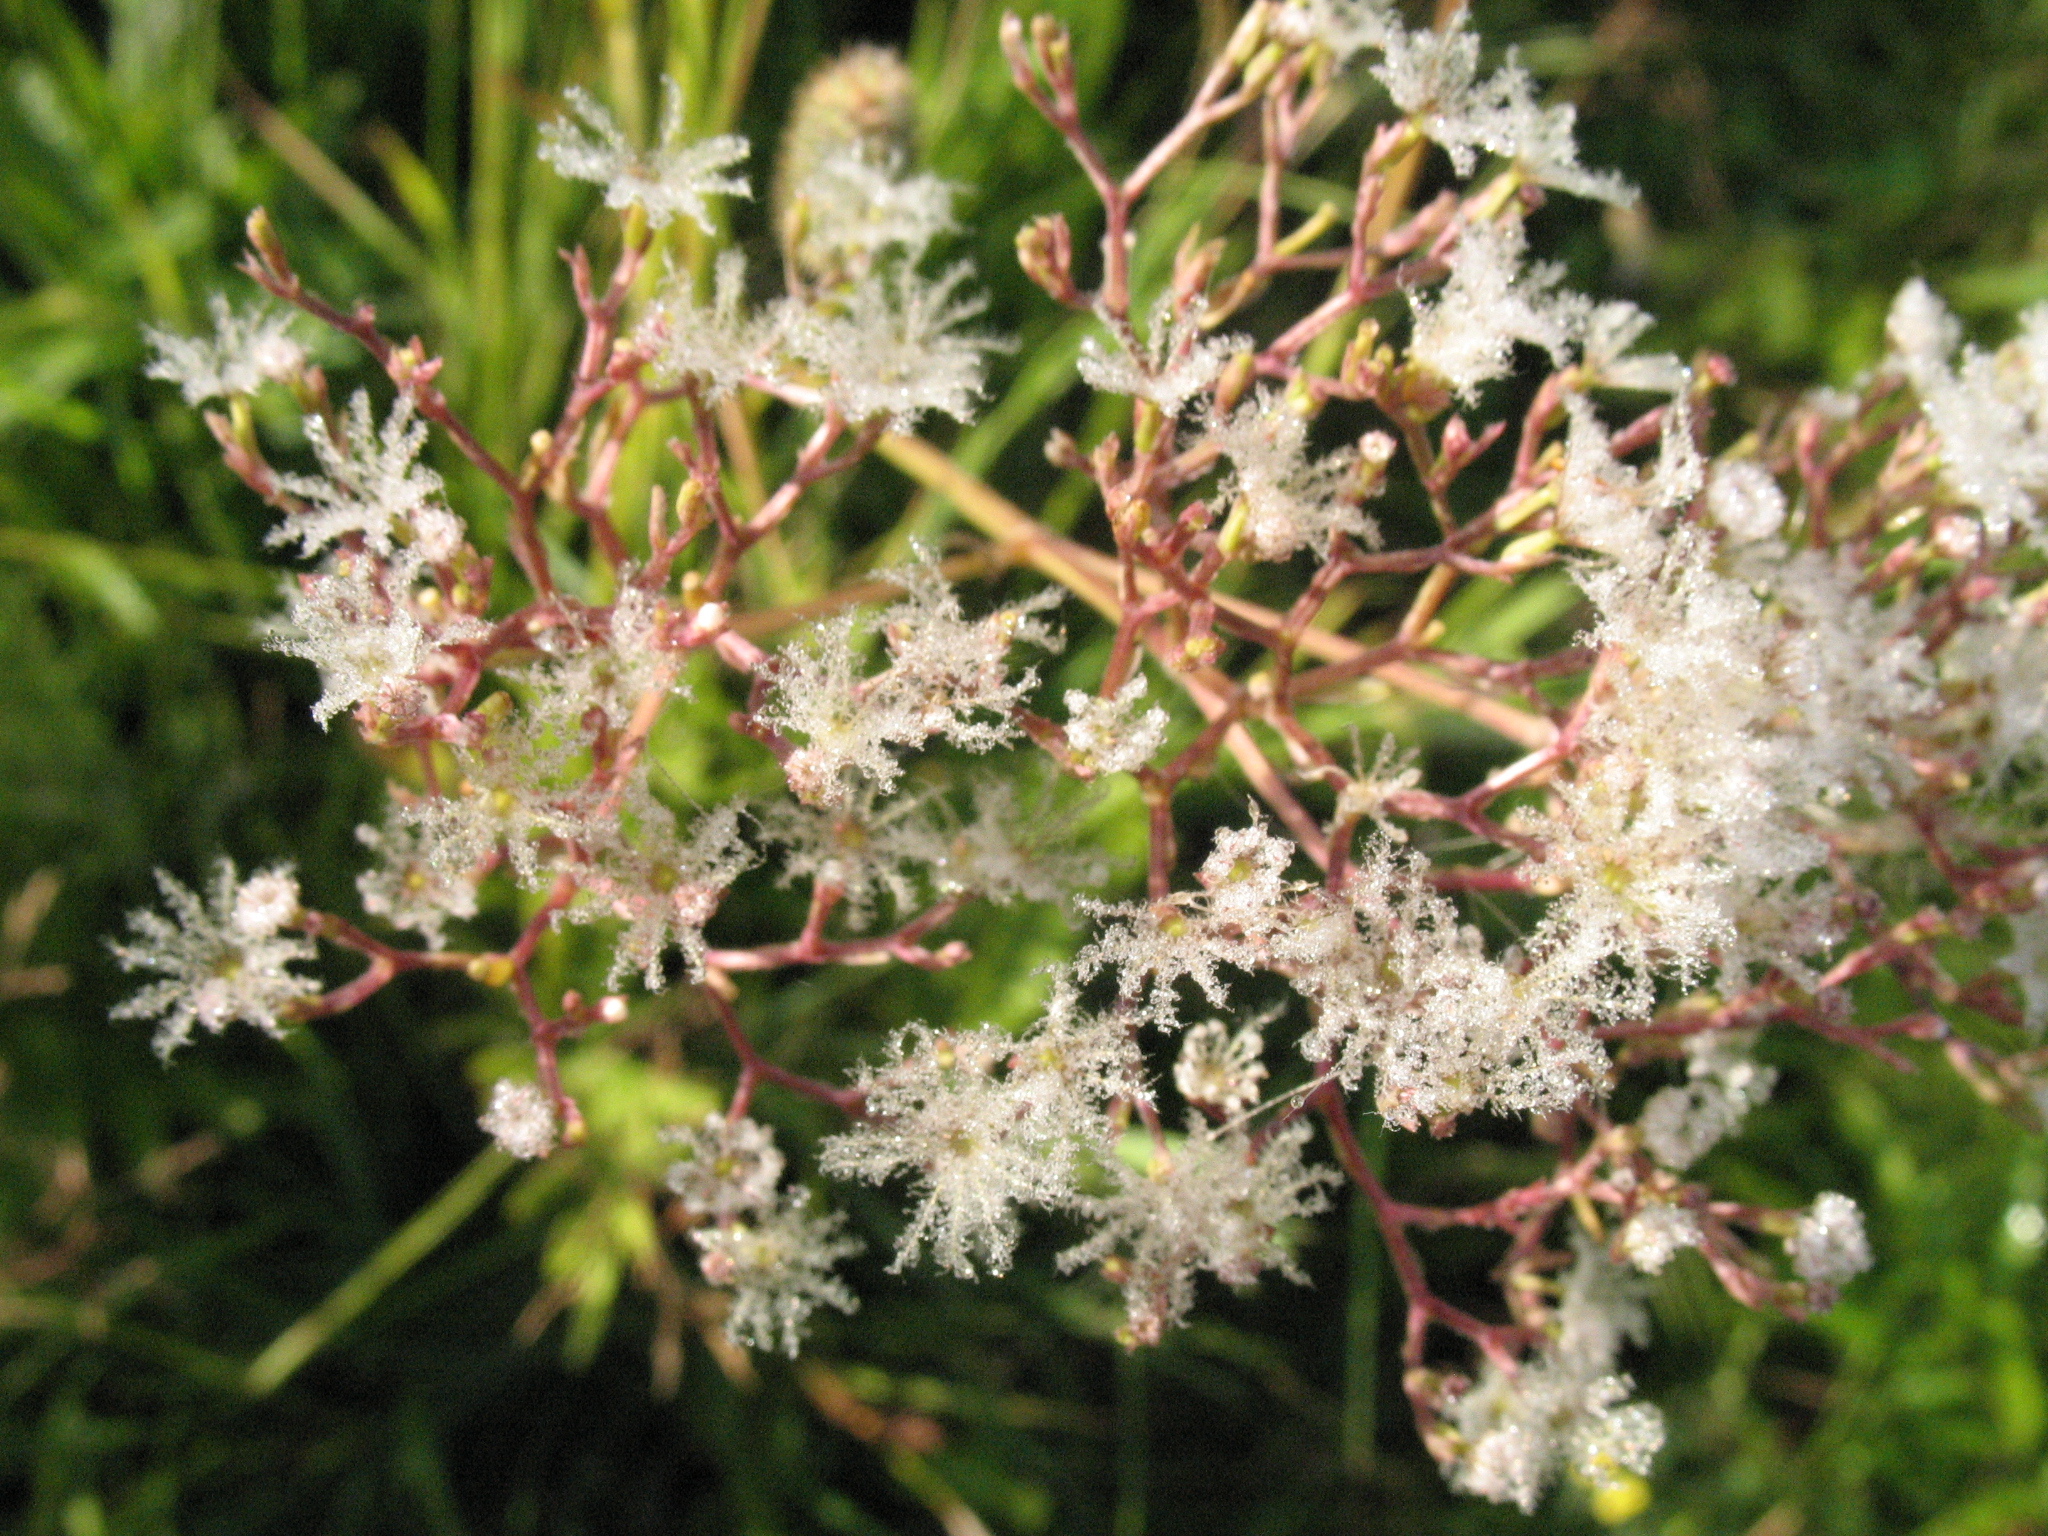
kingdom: Plantae
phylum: Tracheophyta
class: Magnoliopsida
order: Dipsacales
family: Caprifoliaceae
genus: Valeriana
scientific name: Valeriana officinalis
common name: Common valerian
